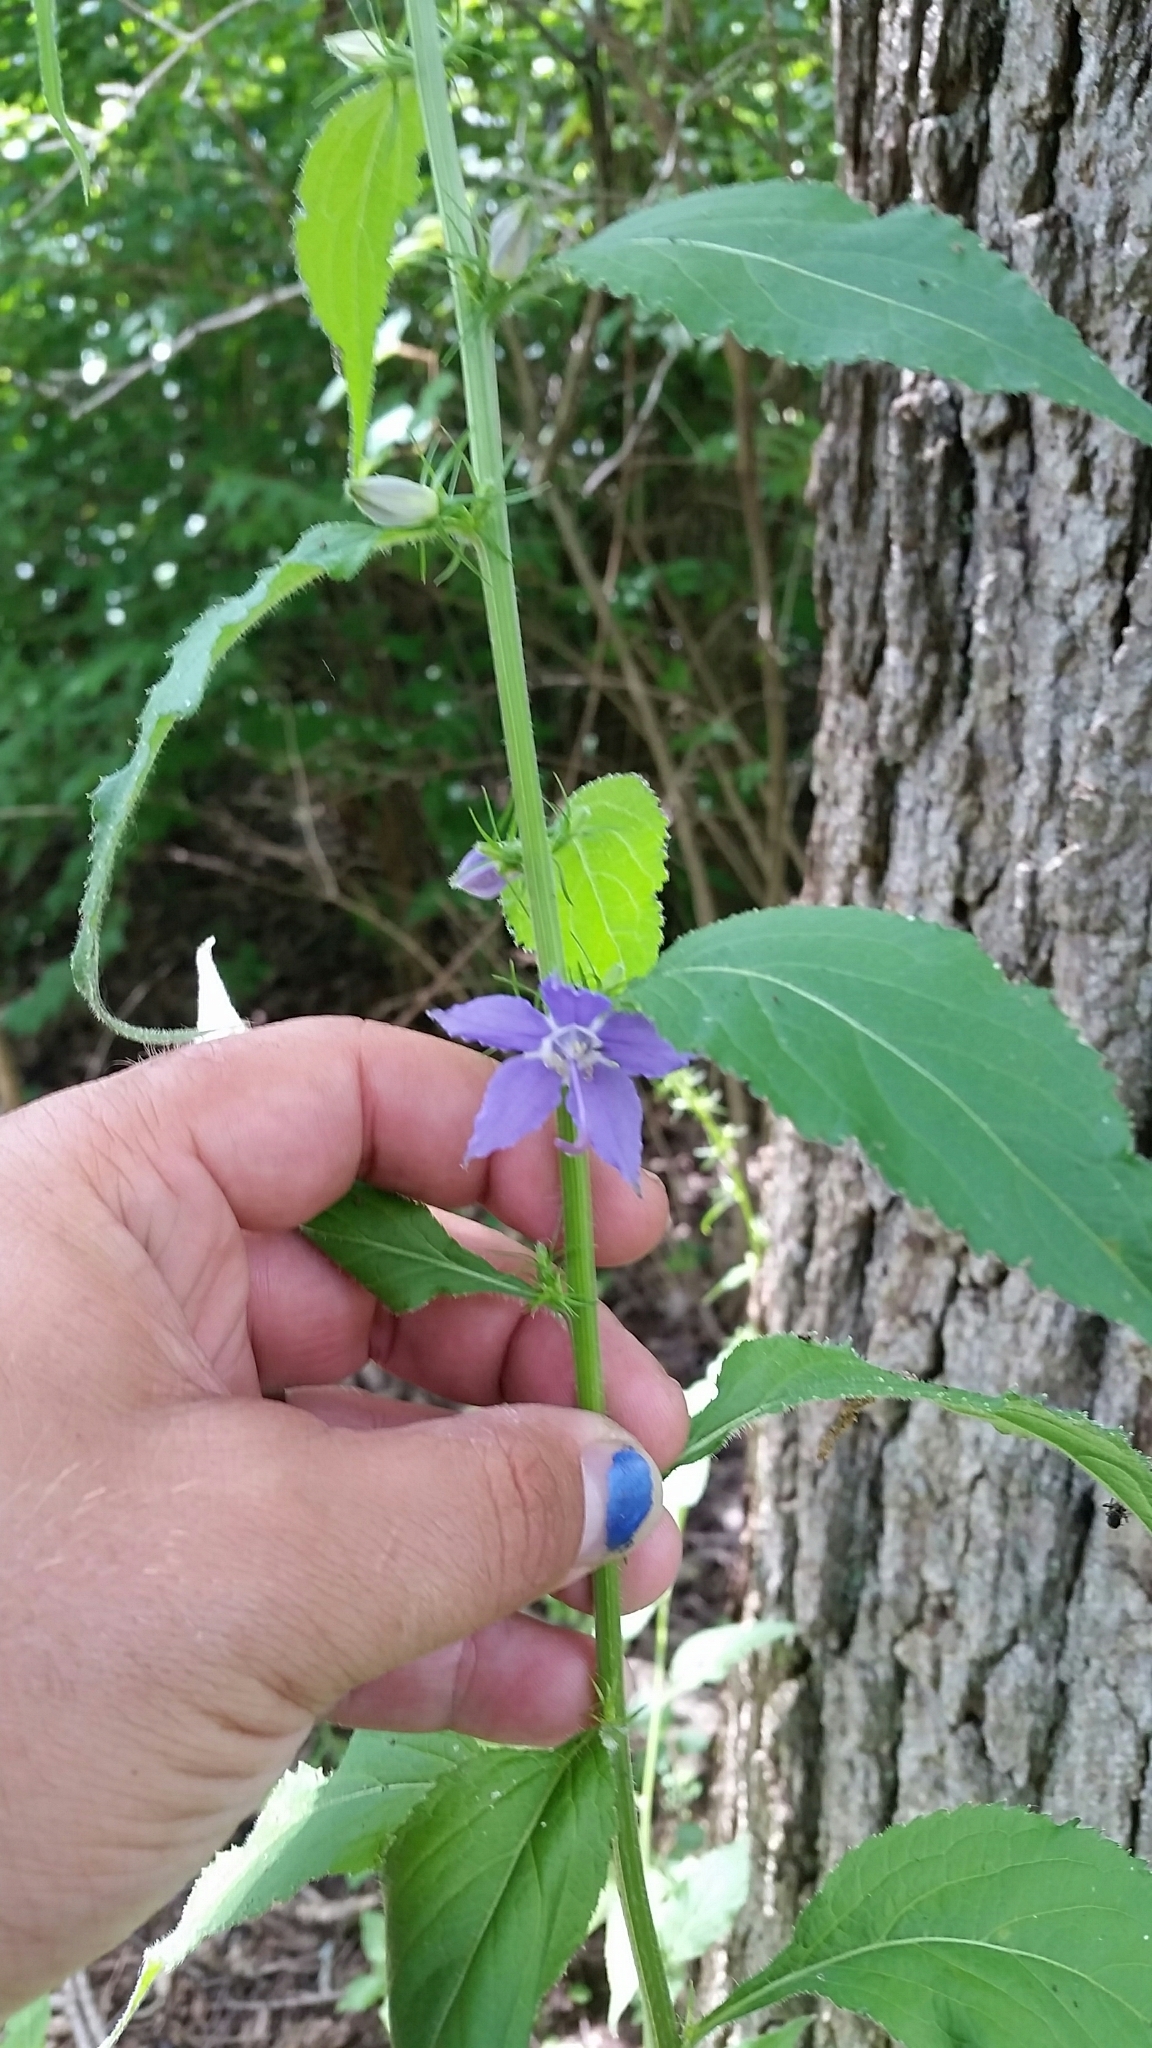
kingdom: Plantae
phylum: Tracheophyta
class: Magnoliopsida
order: Asterales
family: Campanulaceae
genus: Campanulastrum
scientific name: Campanulastrum americanum
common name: American bellflower
